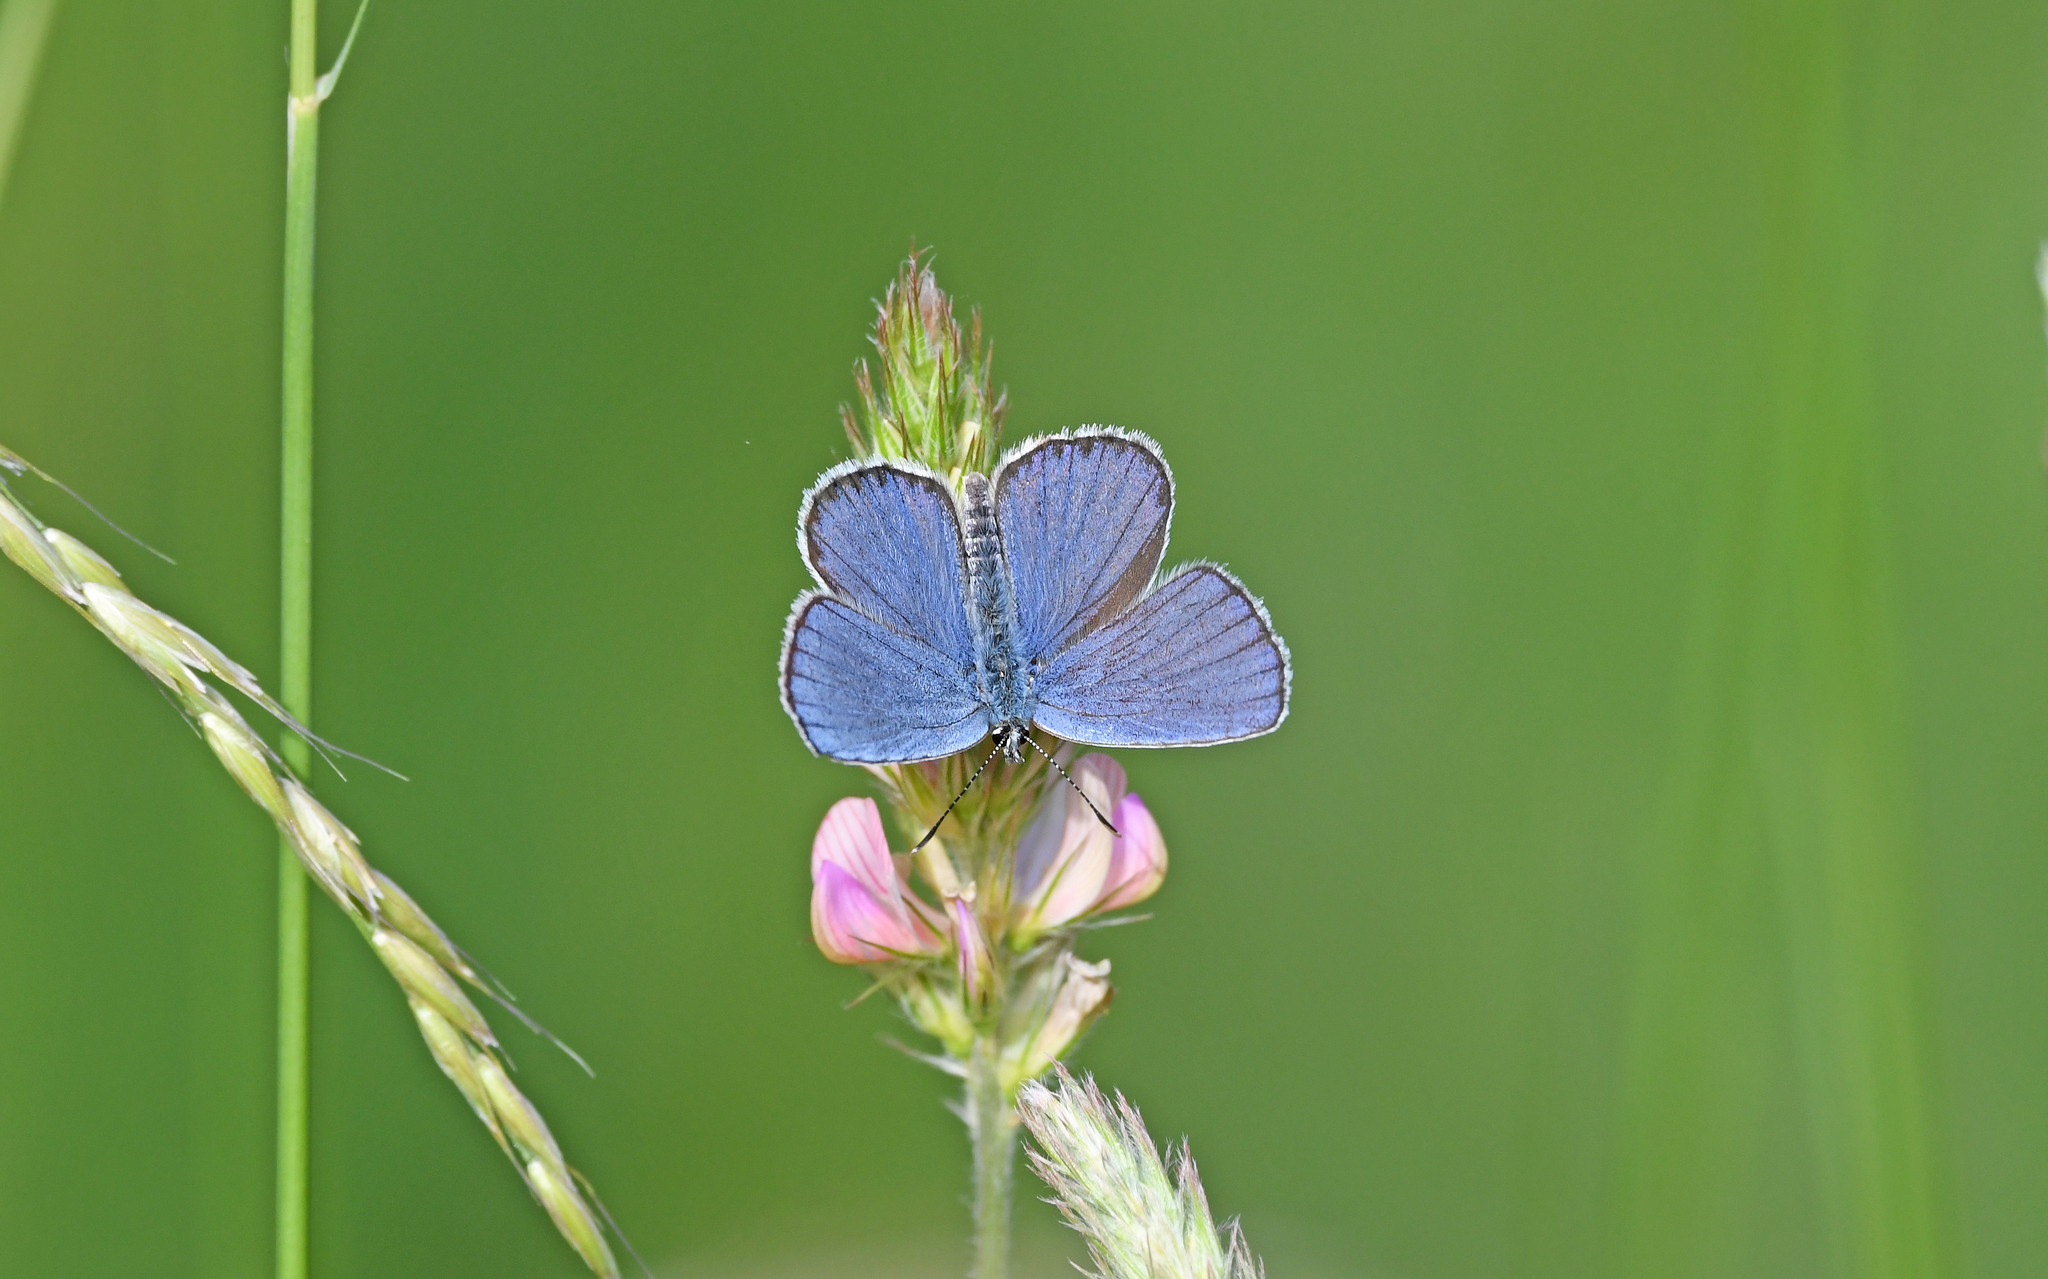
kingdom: Animalia
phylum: Arthropoda
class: Insecta
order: Lepidoptera
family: Lycaenidae
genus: Plebejus
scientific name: Plebejus argyrognomon
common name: Reverdin's blue
